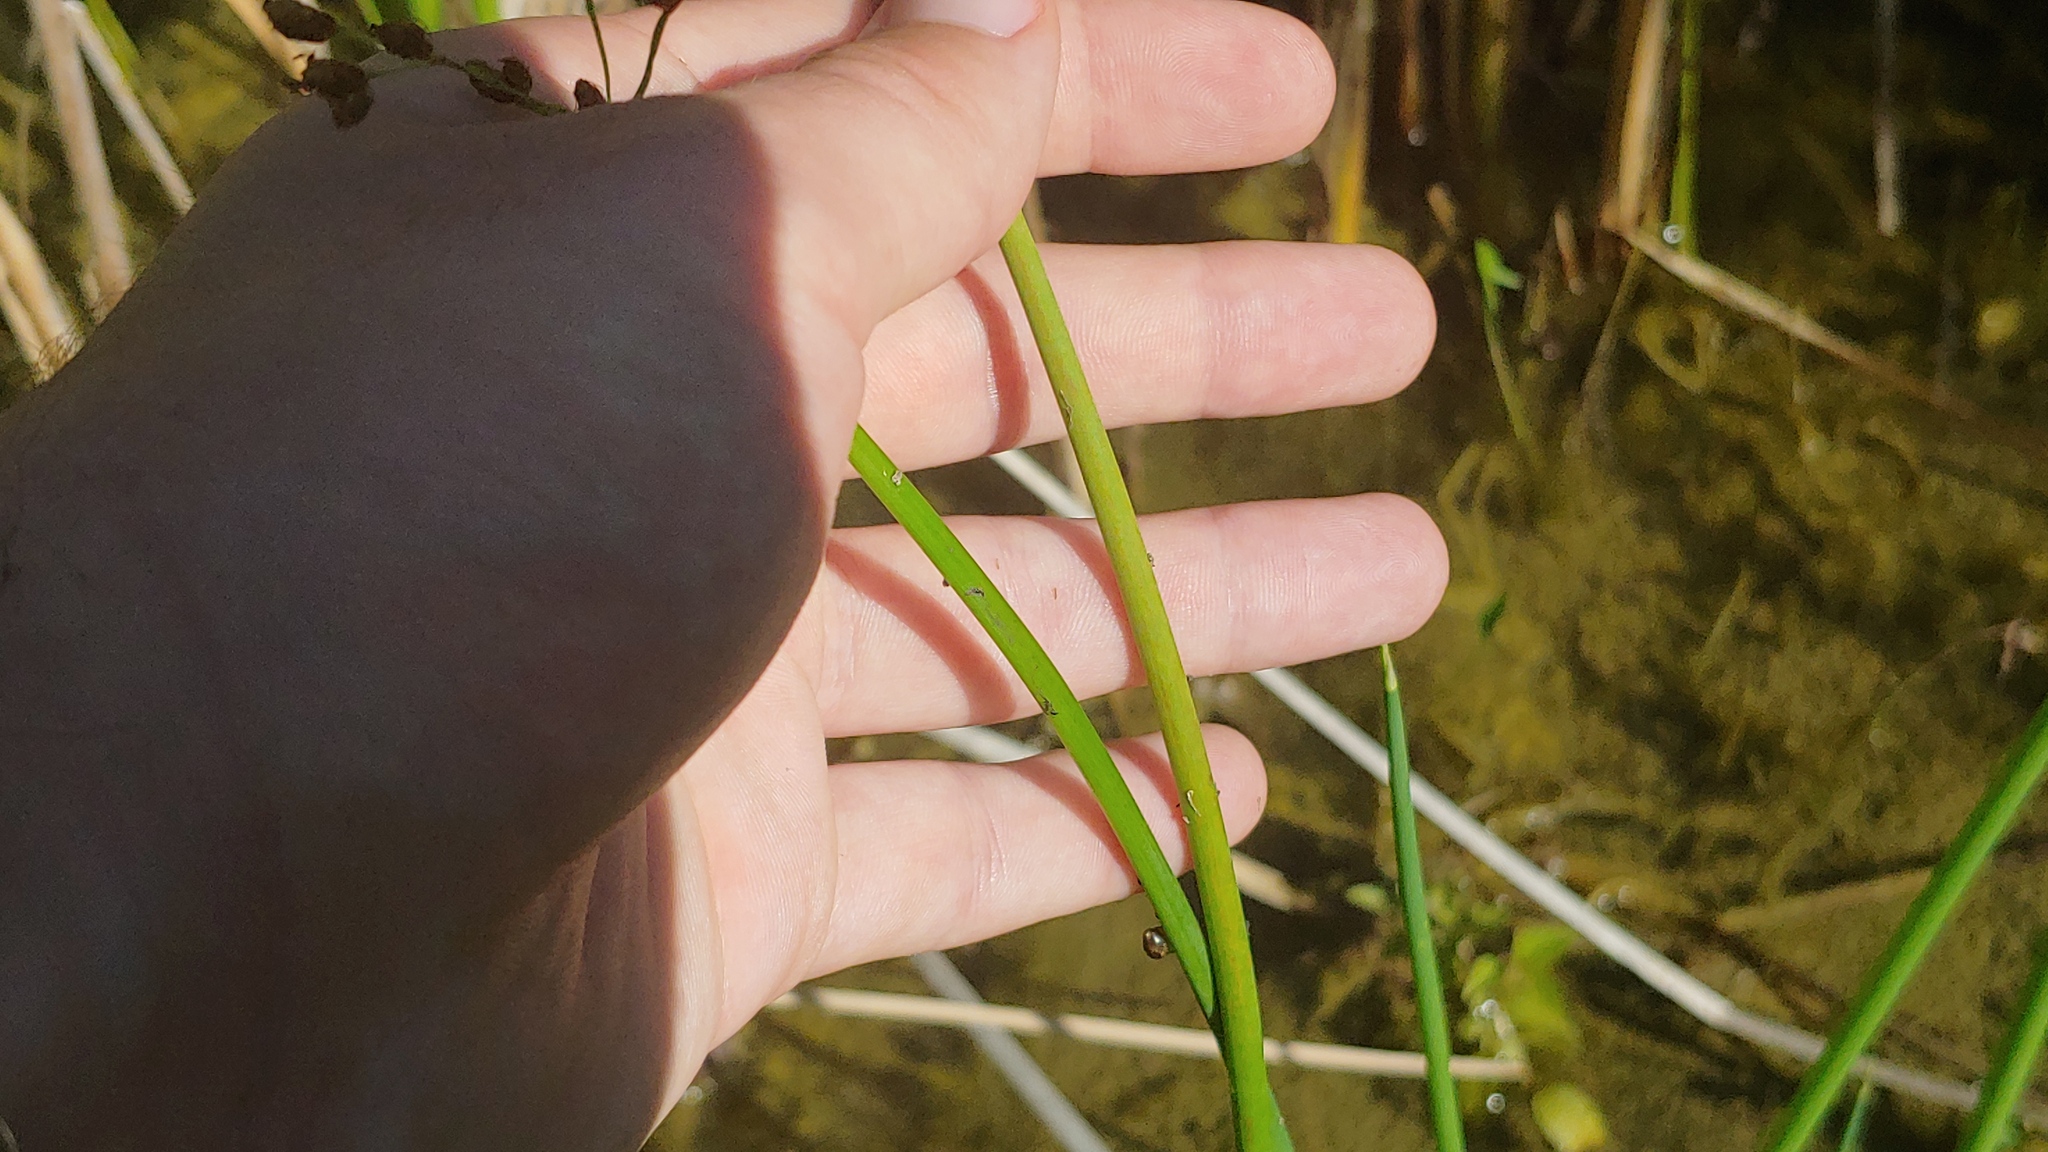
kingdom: Plantae
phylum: Tracheophyta
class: Liliopsida
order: Poales
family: Cyperaceae
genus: Schoenoplectus
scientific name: Schoenoplectus tabernaemontani
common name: Grey club-rush
